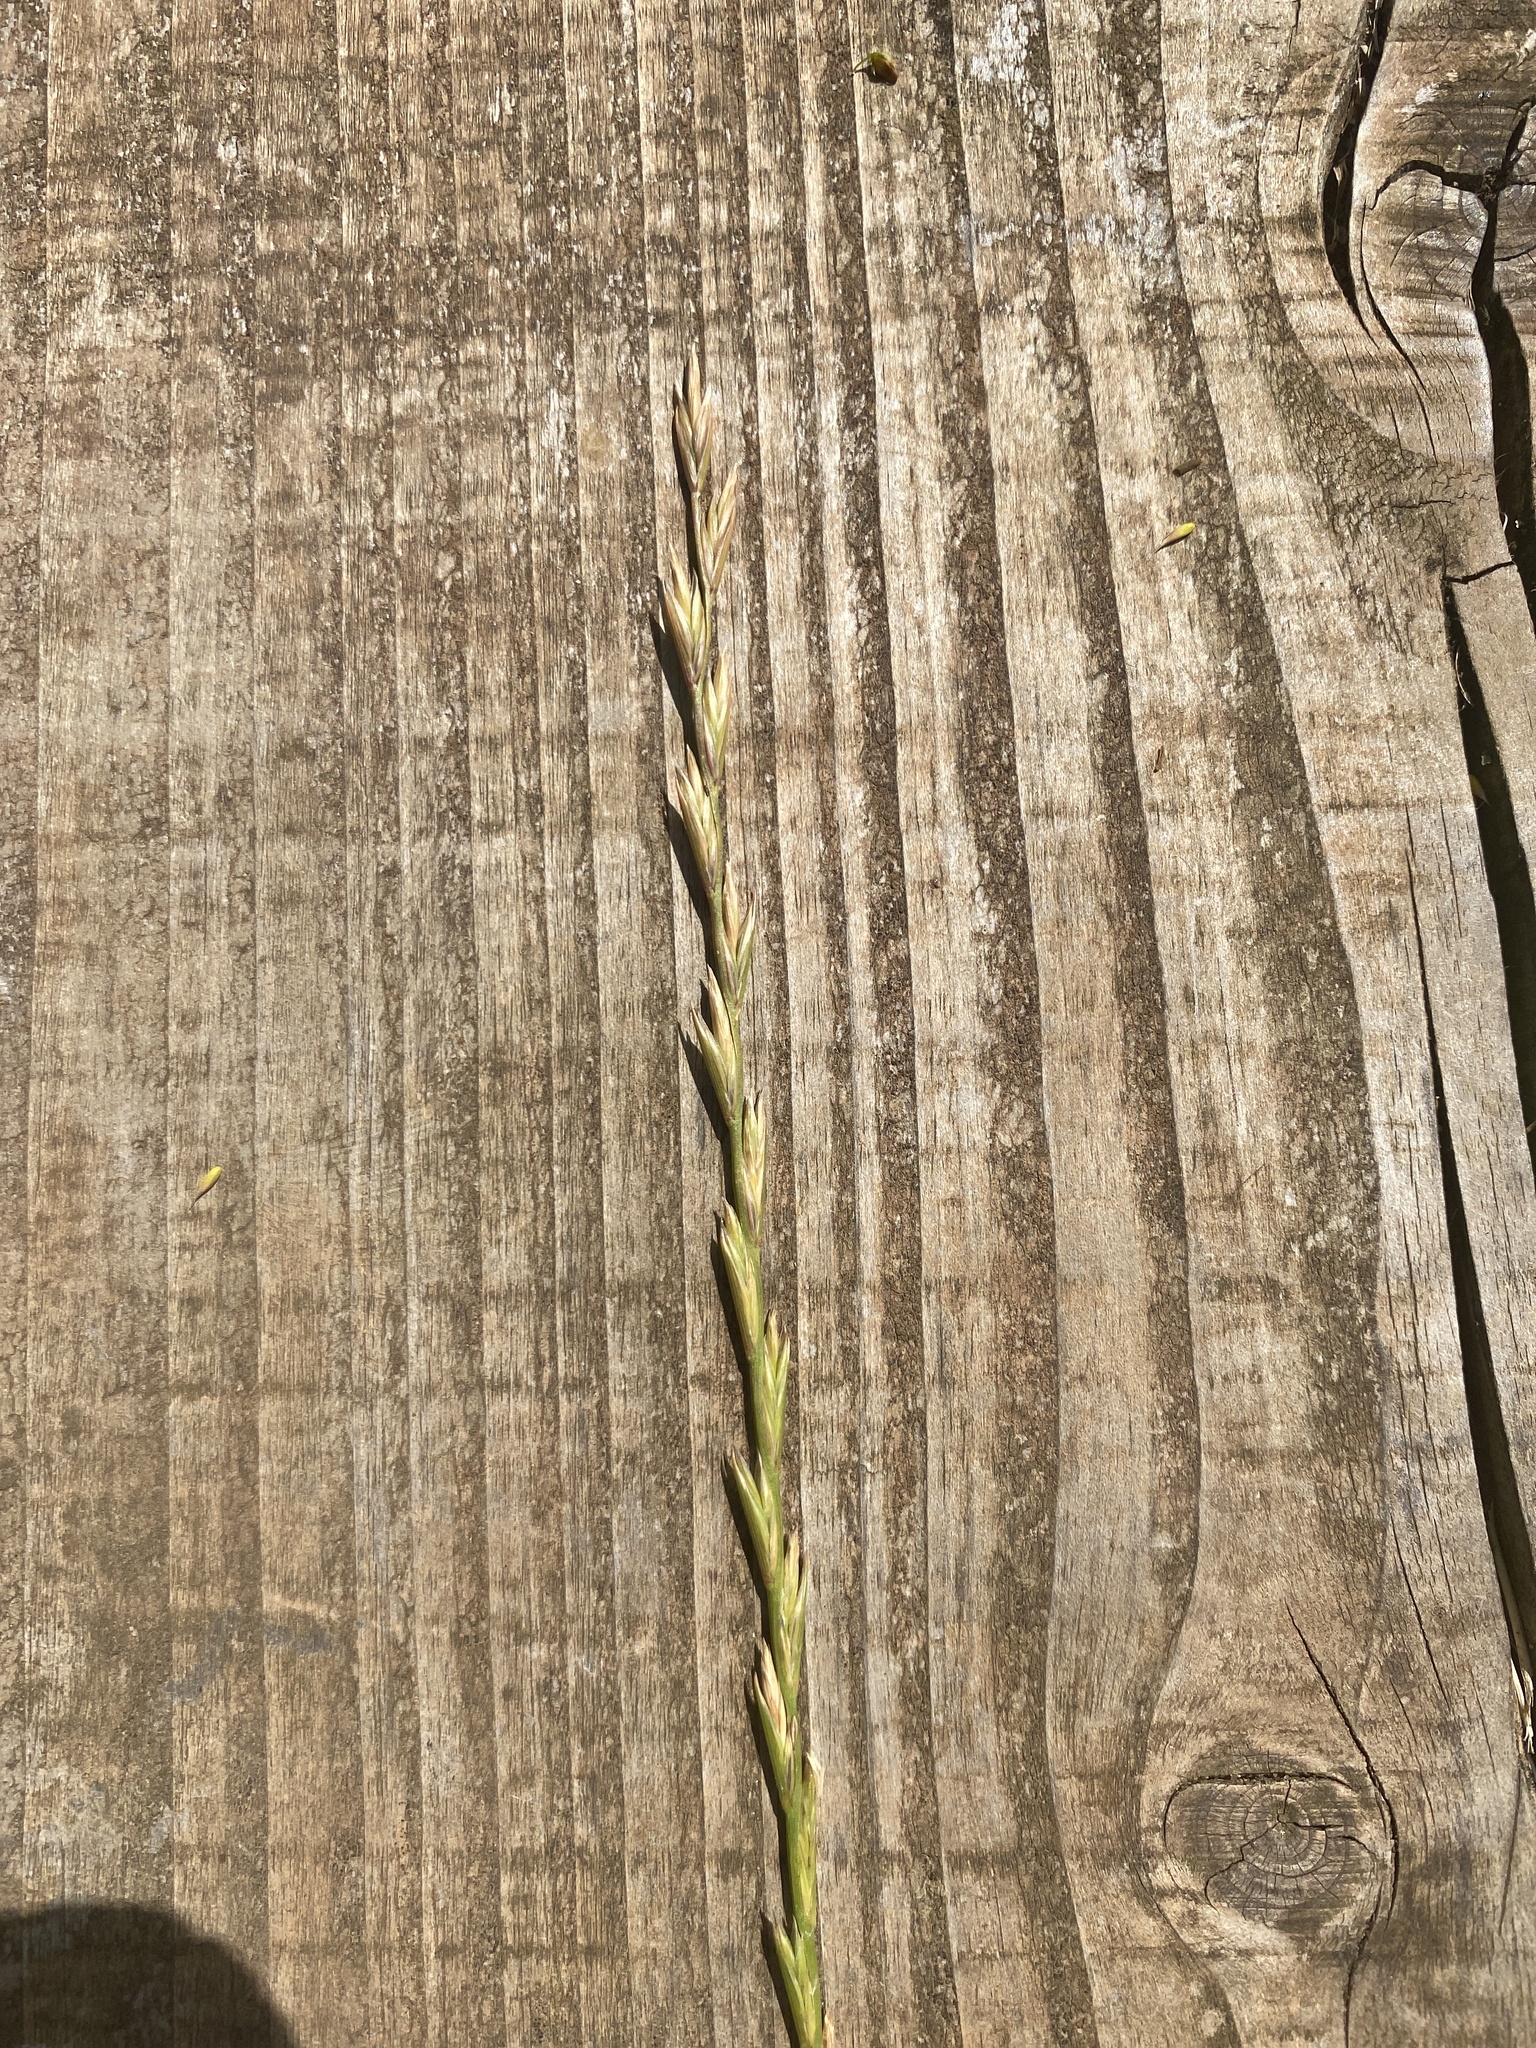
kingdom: Plantae
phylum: Tracheophyta
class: Liliopsida
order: Poales
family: Poaceae
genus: Lolium
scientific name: Lolium perenne
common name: Perennial ryegrass
